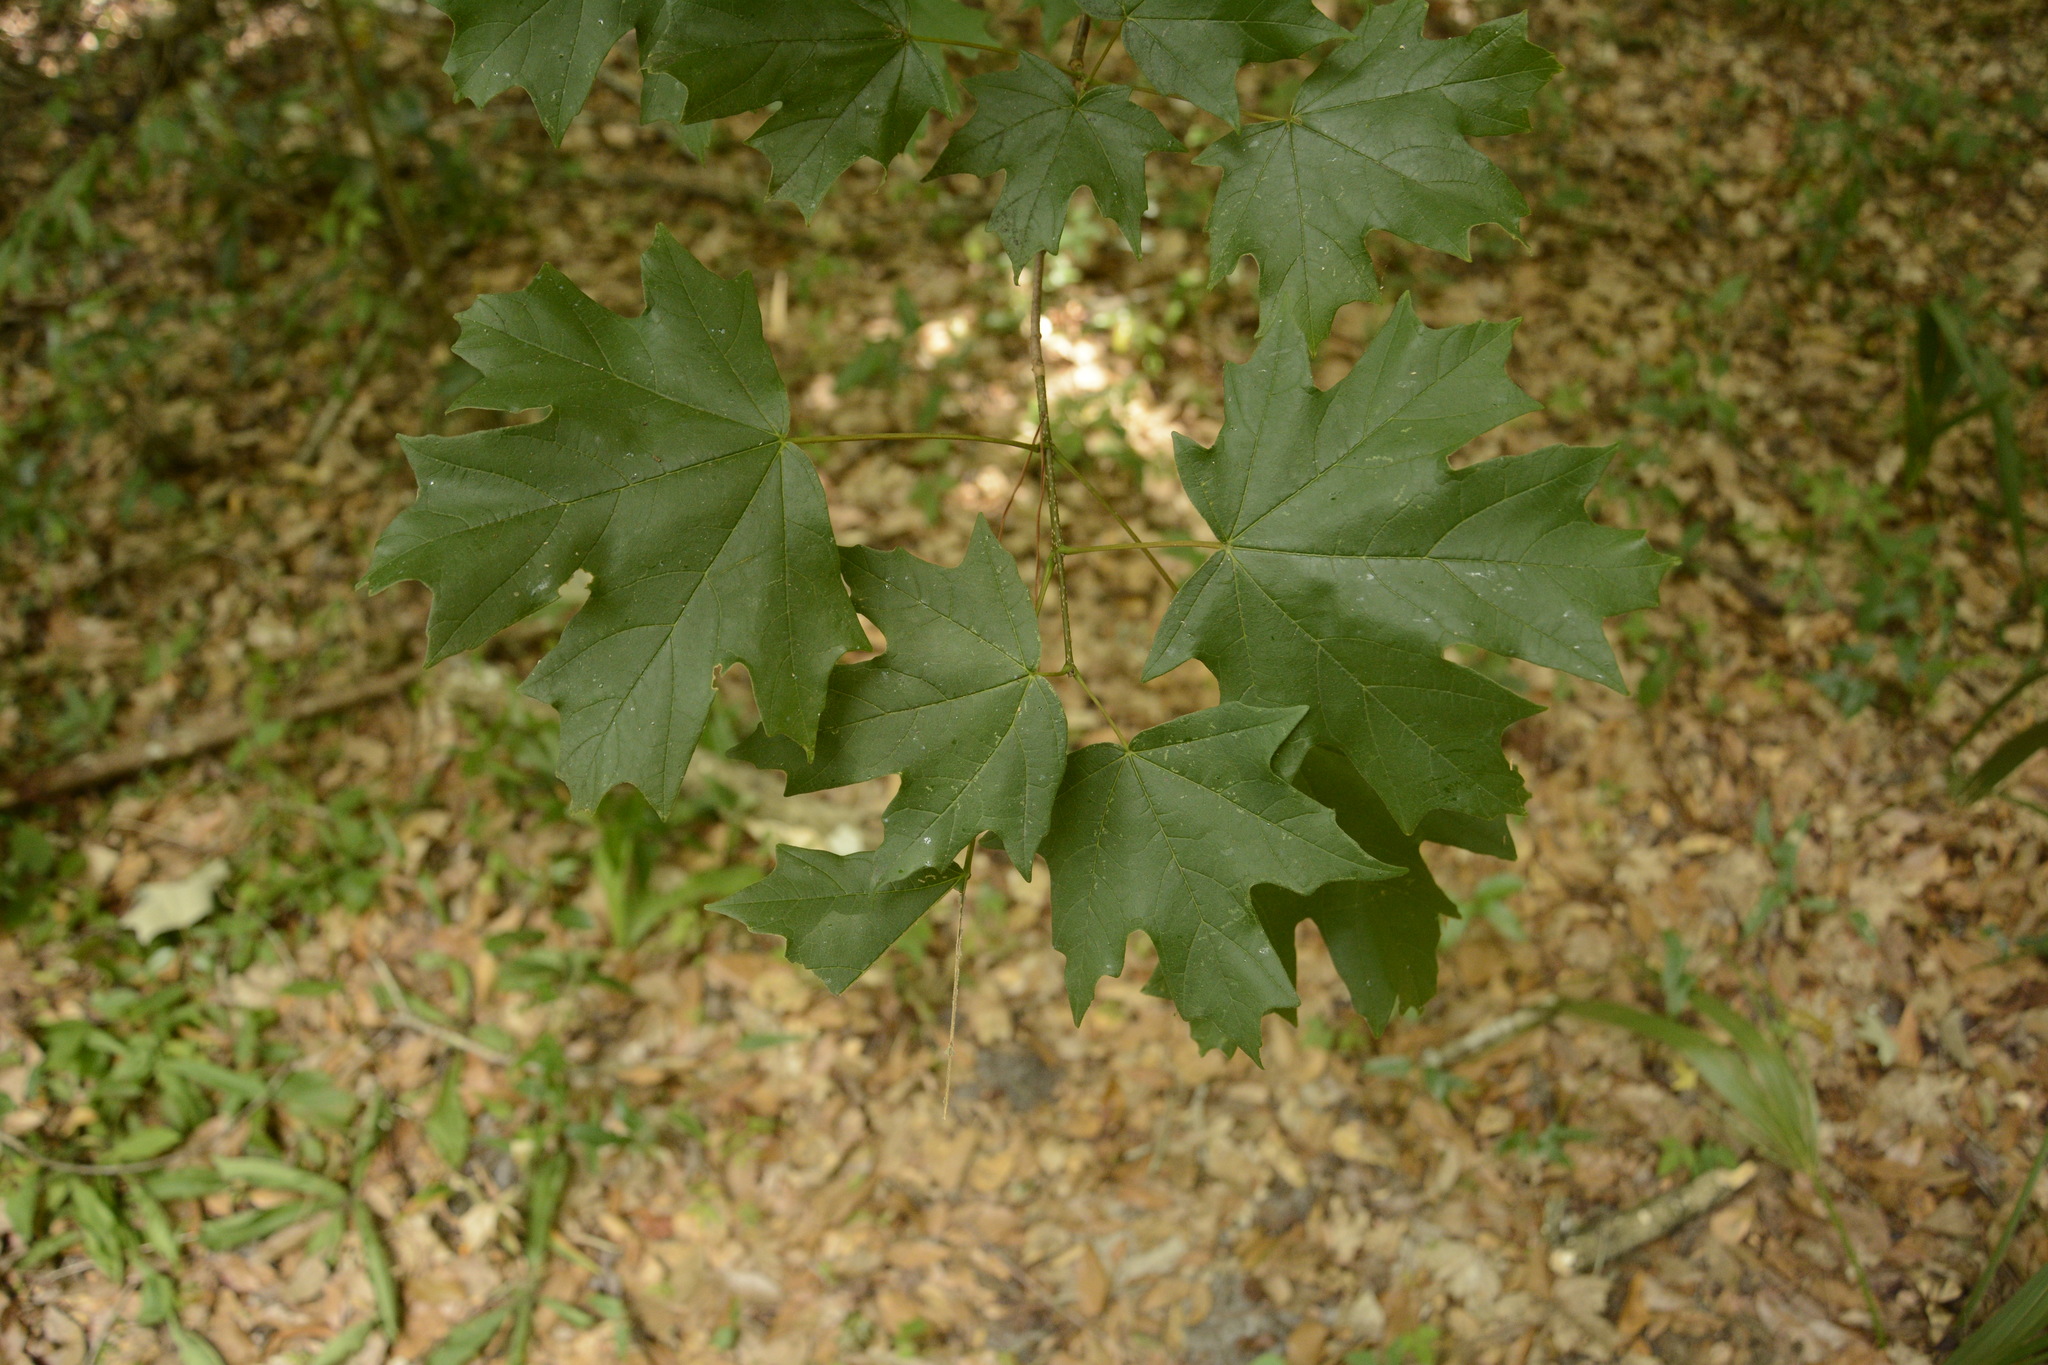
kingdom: Plantae
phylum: Tracheophyta
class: Magnoliopsida
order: Sapindales
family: Sapindaceae
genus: Acer
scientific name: Acer floridanum
